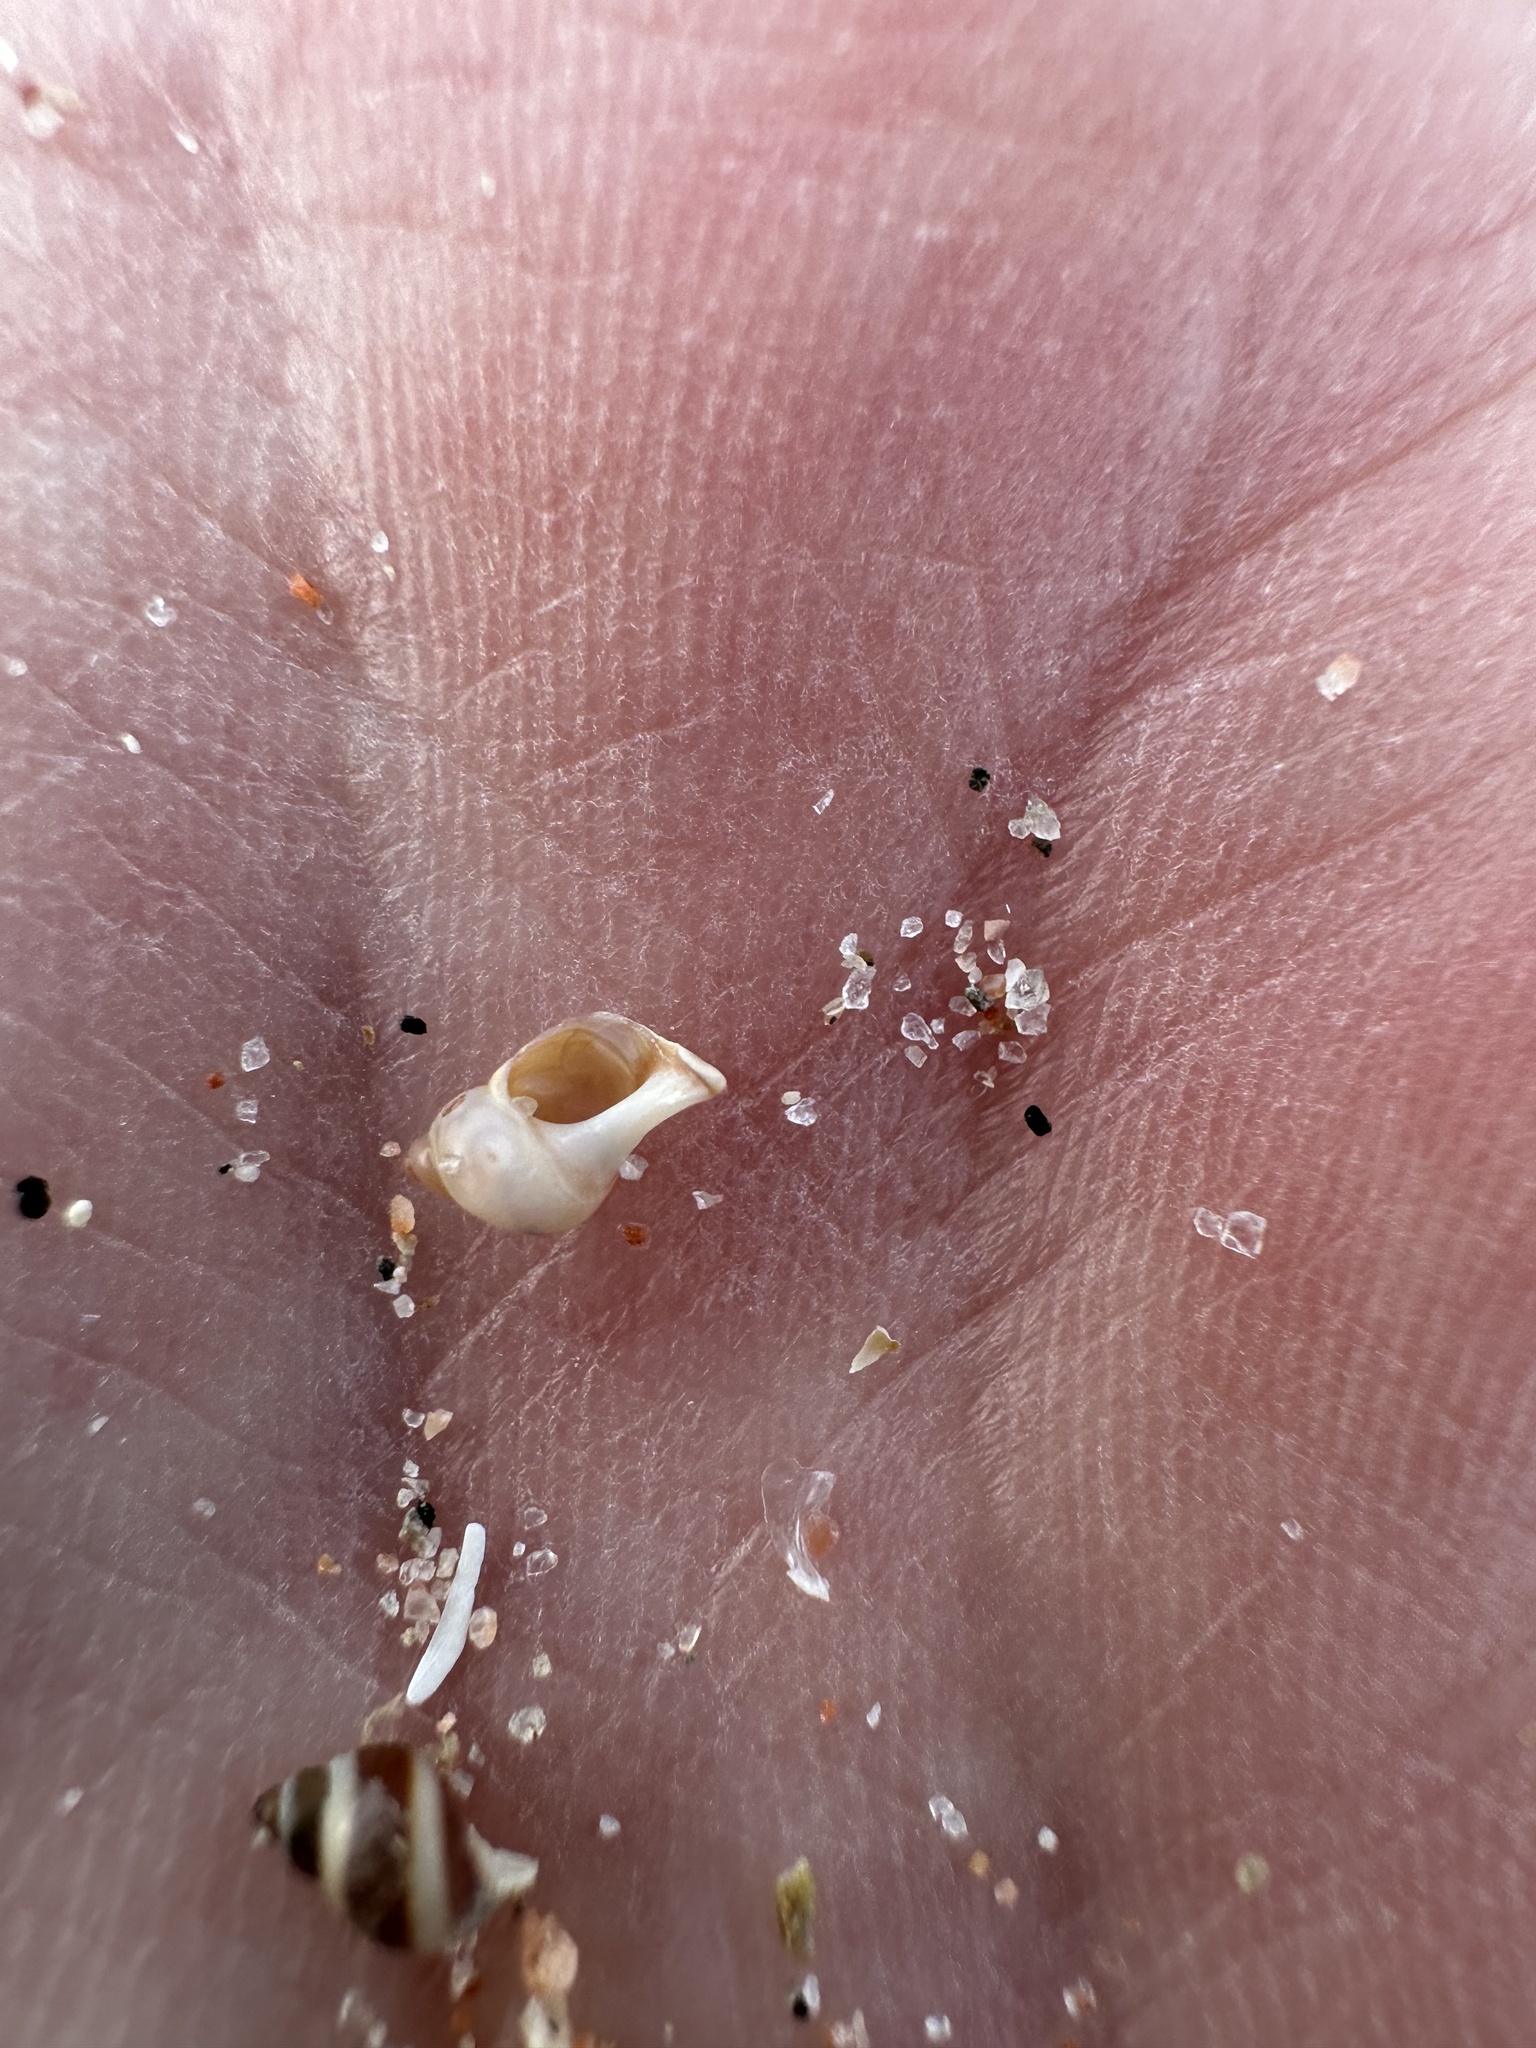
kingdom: Animalia
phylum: Mollusca
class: Gastropoda
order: Littorinimorpha
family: Littorinidae
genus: Lacuna
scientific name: Lacuna vincta
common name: Banded chink shell
